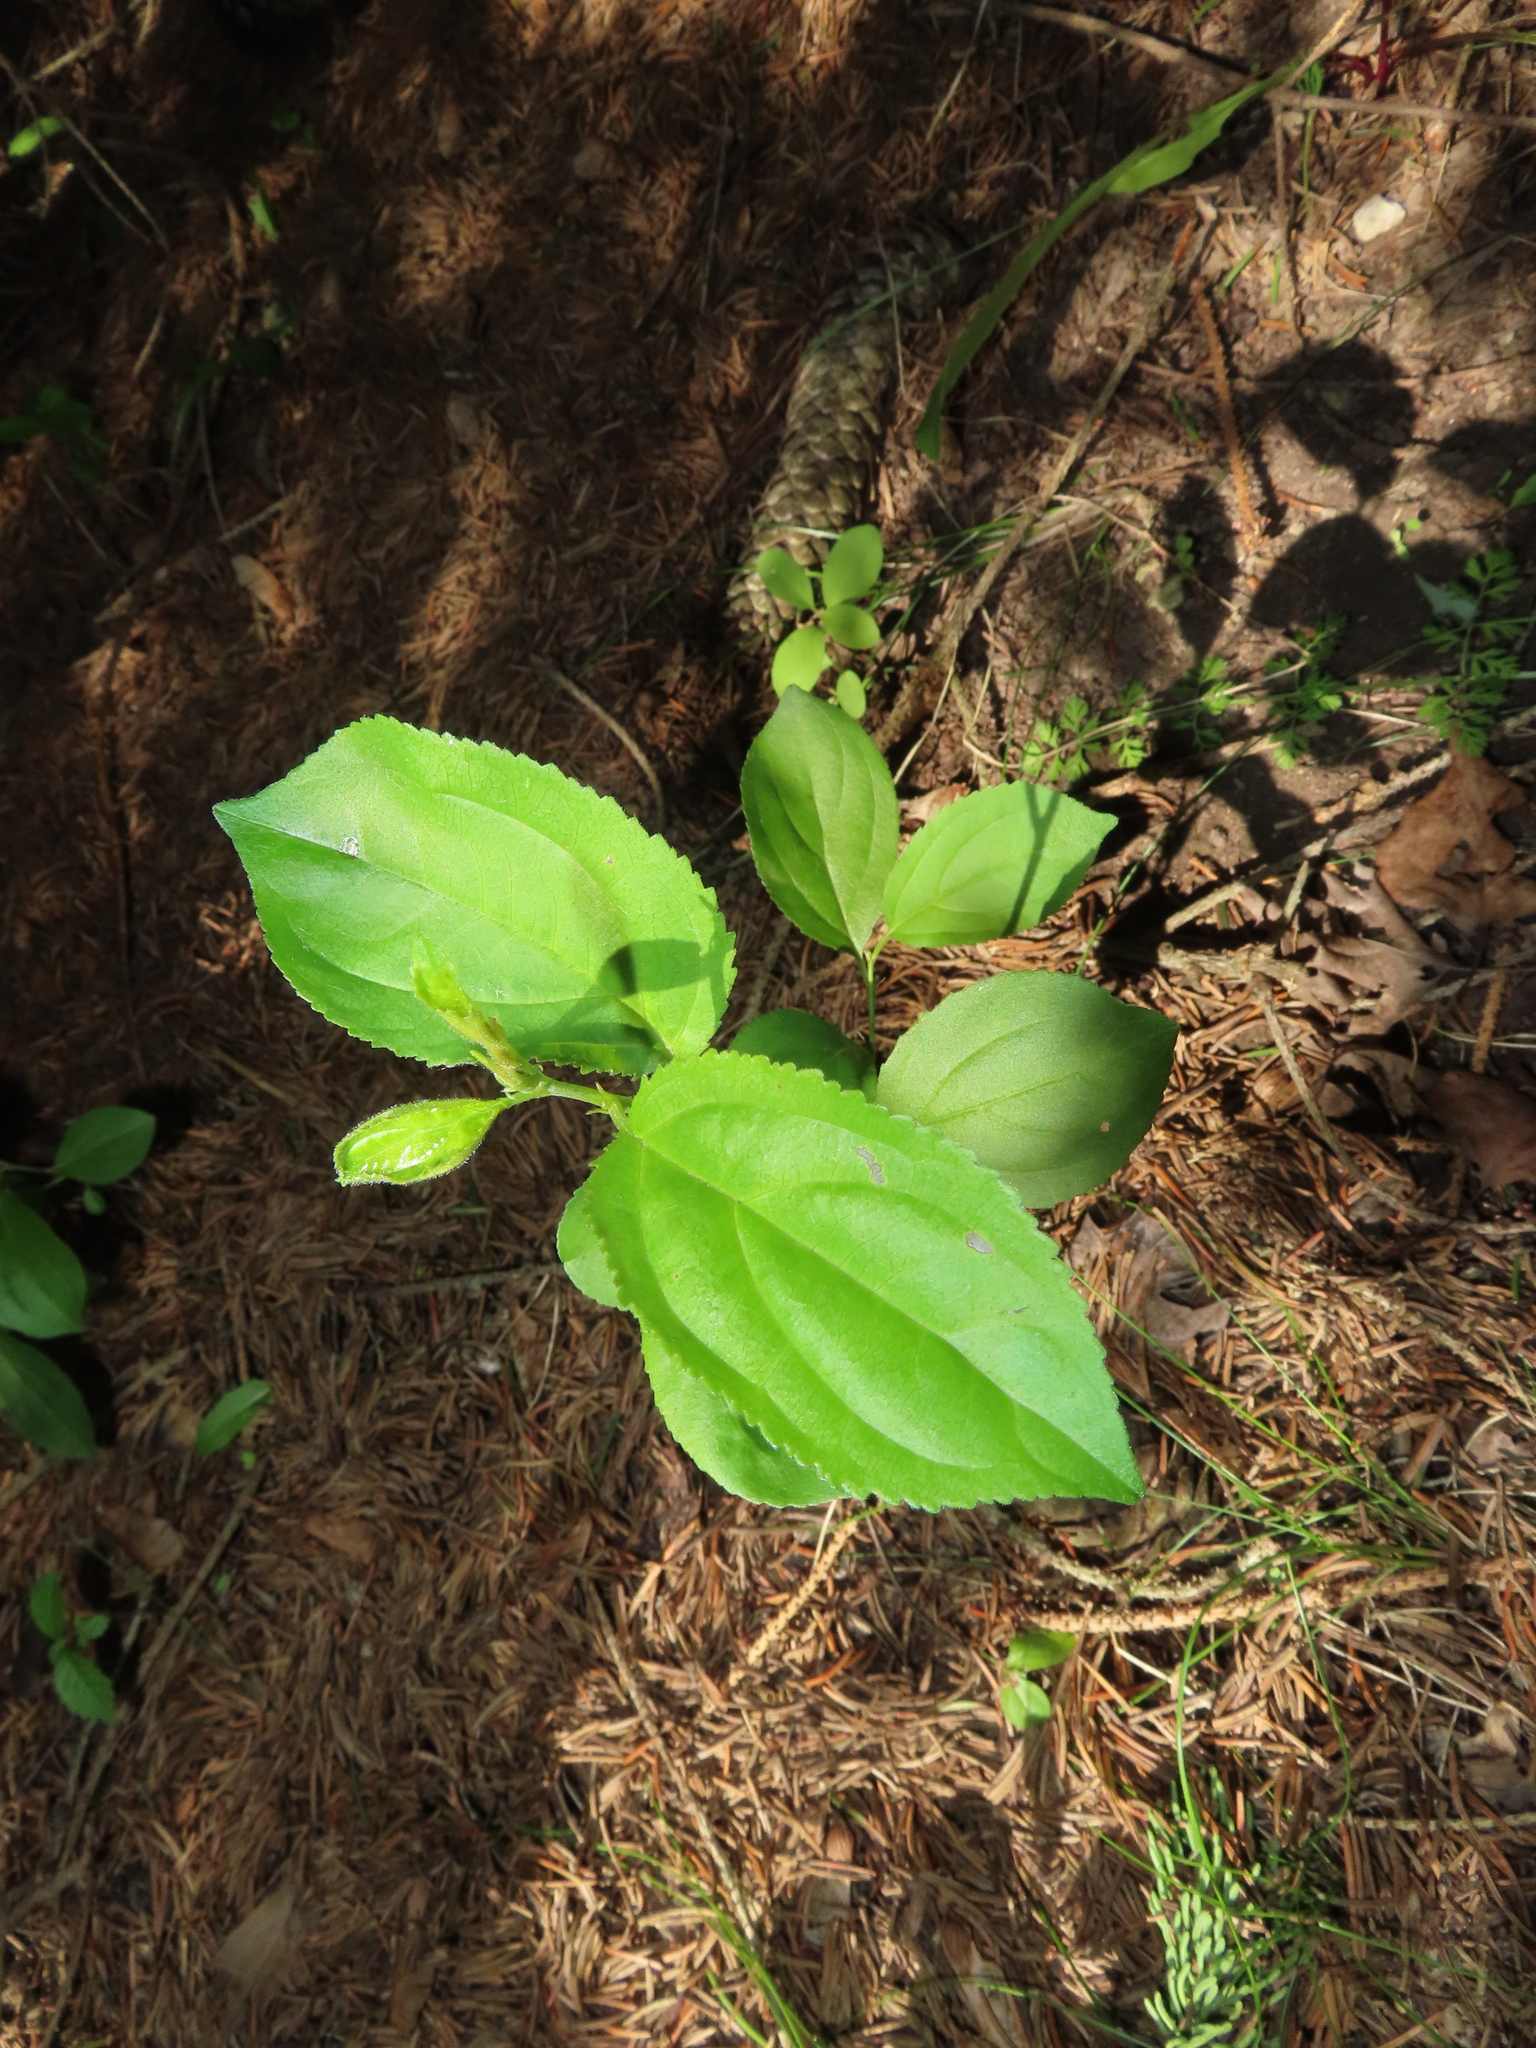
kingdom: Plantae
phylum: Tracheophyta
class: Magnoliopsida
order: Rosales
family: Rhamnaceae
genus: Rhamnus
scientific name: Rhamnus cathartica
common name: Common buckthorn
